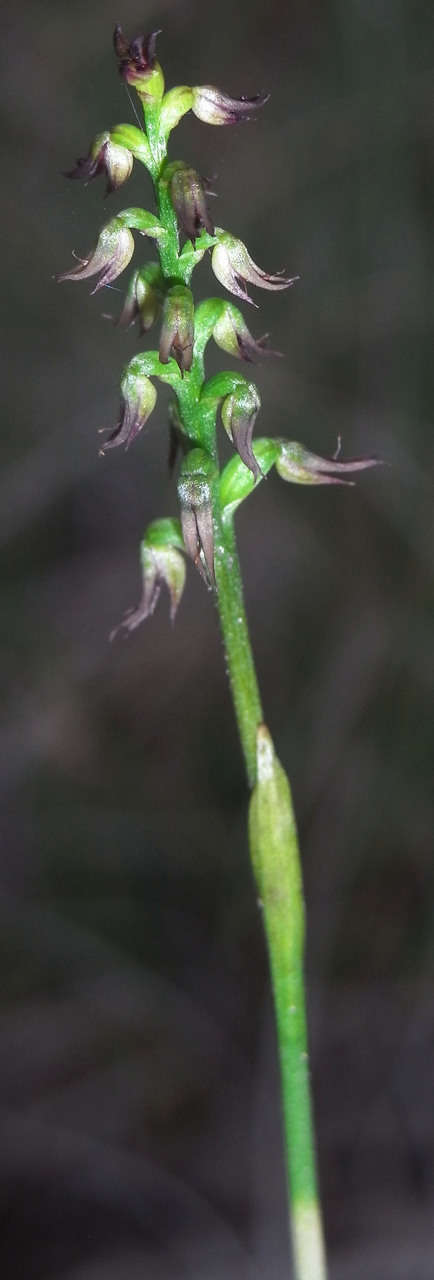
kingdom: Plantae
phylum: Tracheophyta
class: Liliopsida
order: Asparagales
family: Orchidaceae
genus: Genoplesium
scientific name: Genoplesium despectans
